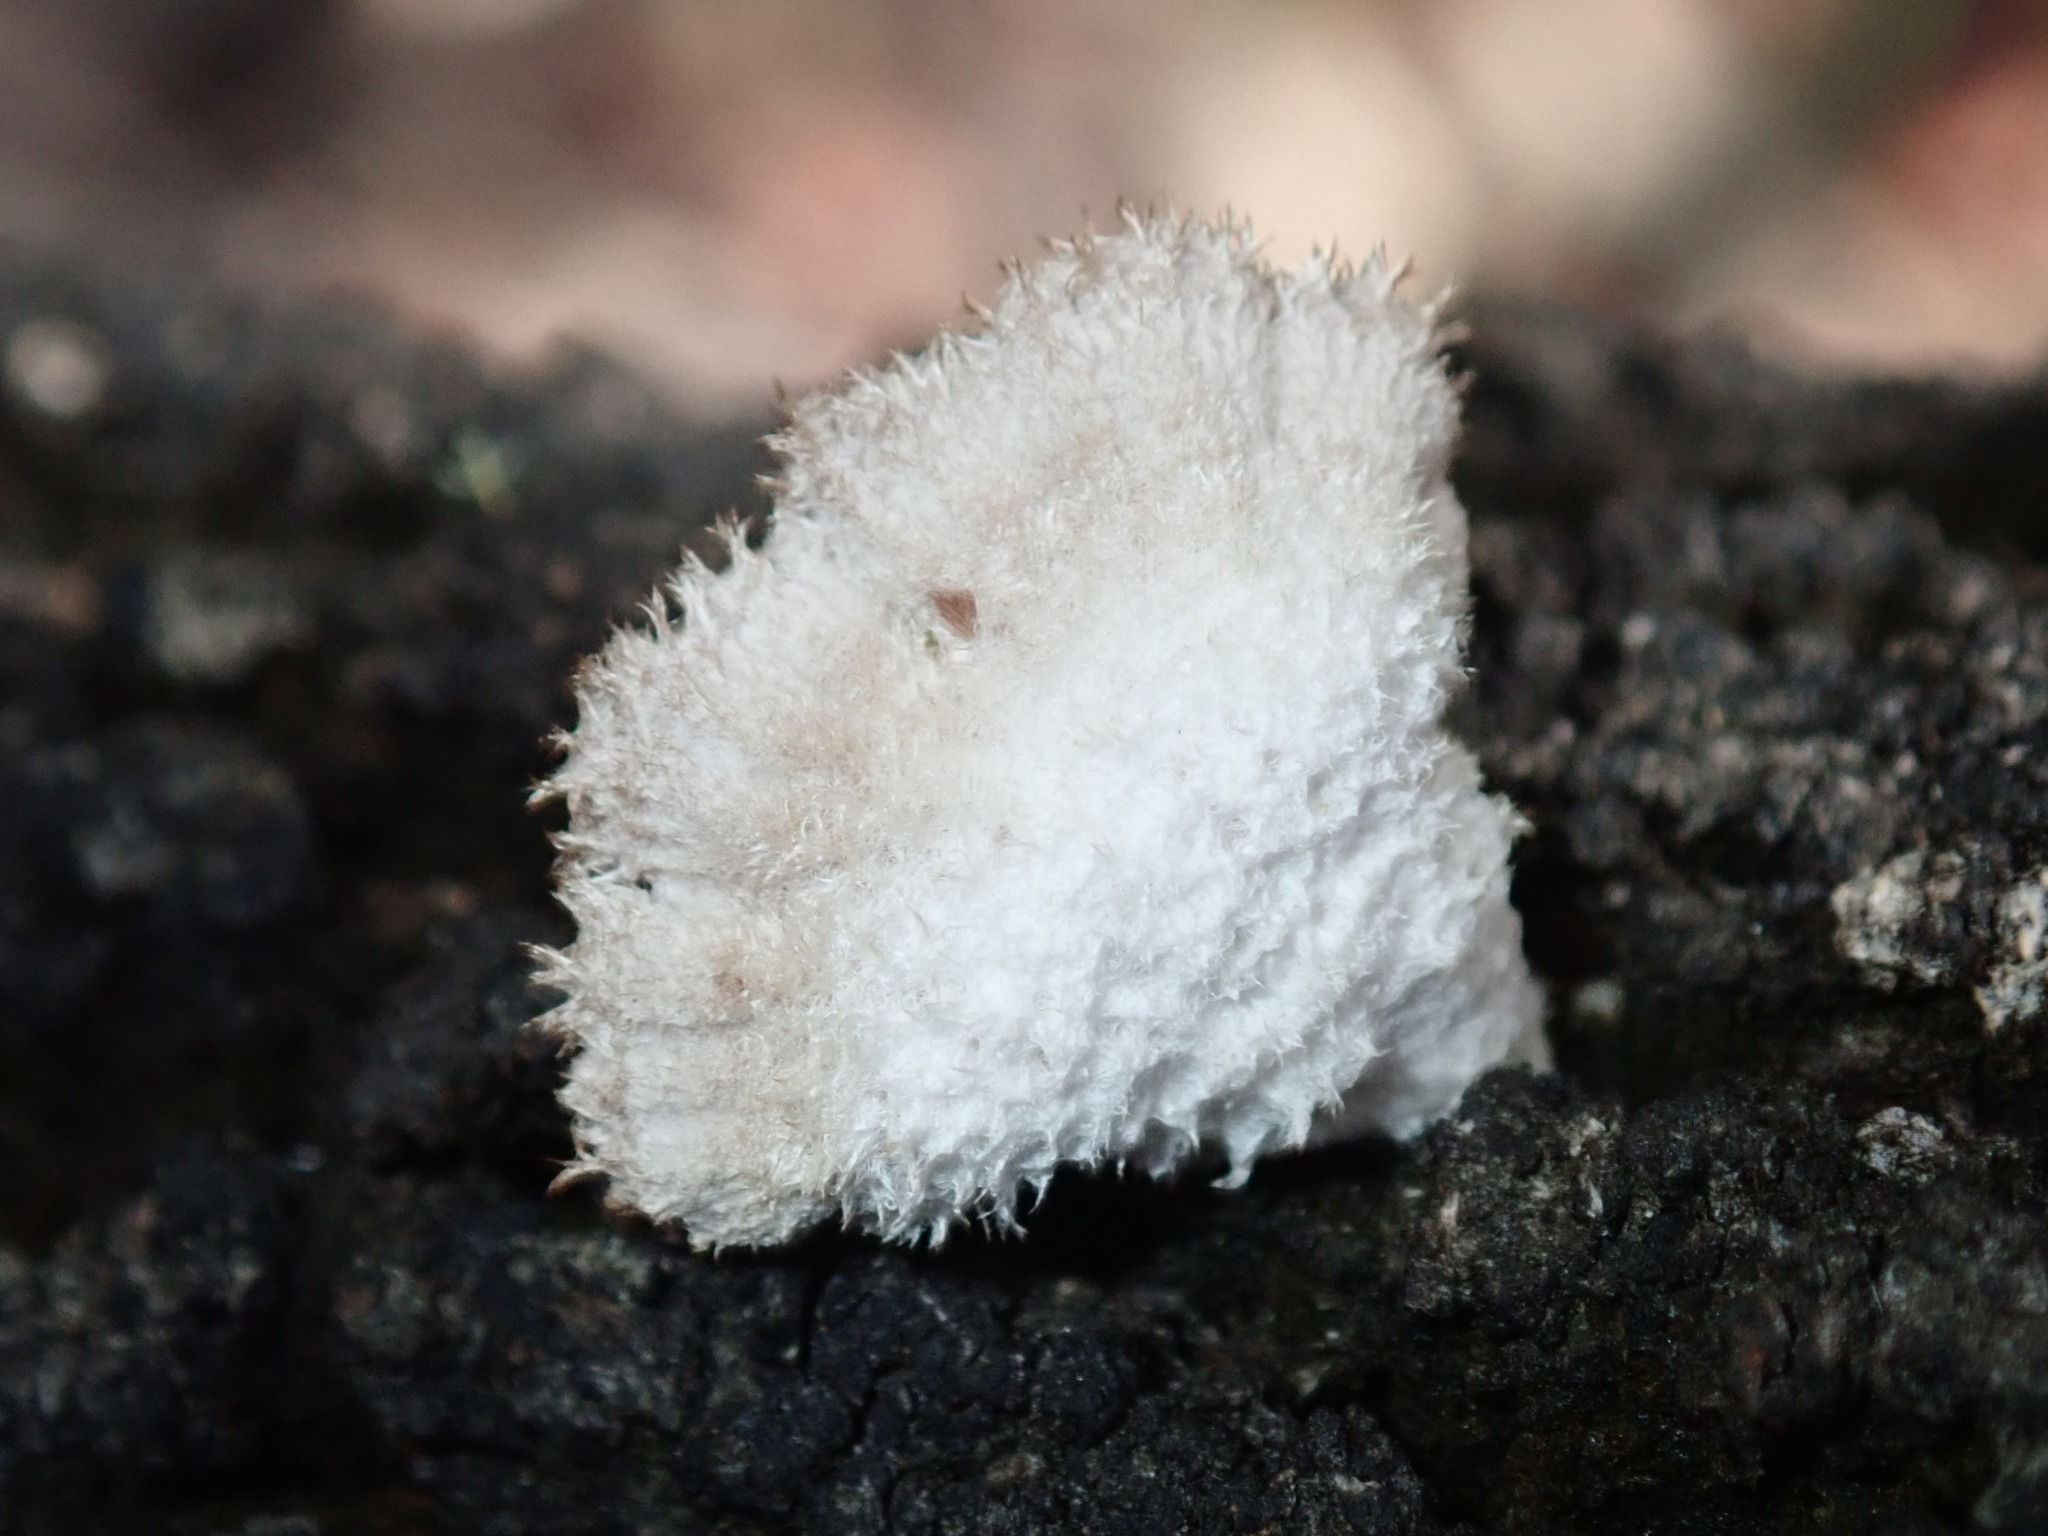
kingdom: Fungi
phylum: Basidiomycota
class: Agaricomycetes
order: Agaricales
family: Schizophyllaceae
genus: Schizophyllum
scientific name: Schizophyllum commune
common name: Common porecrust
